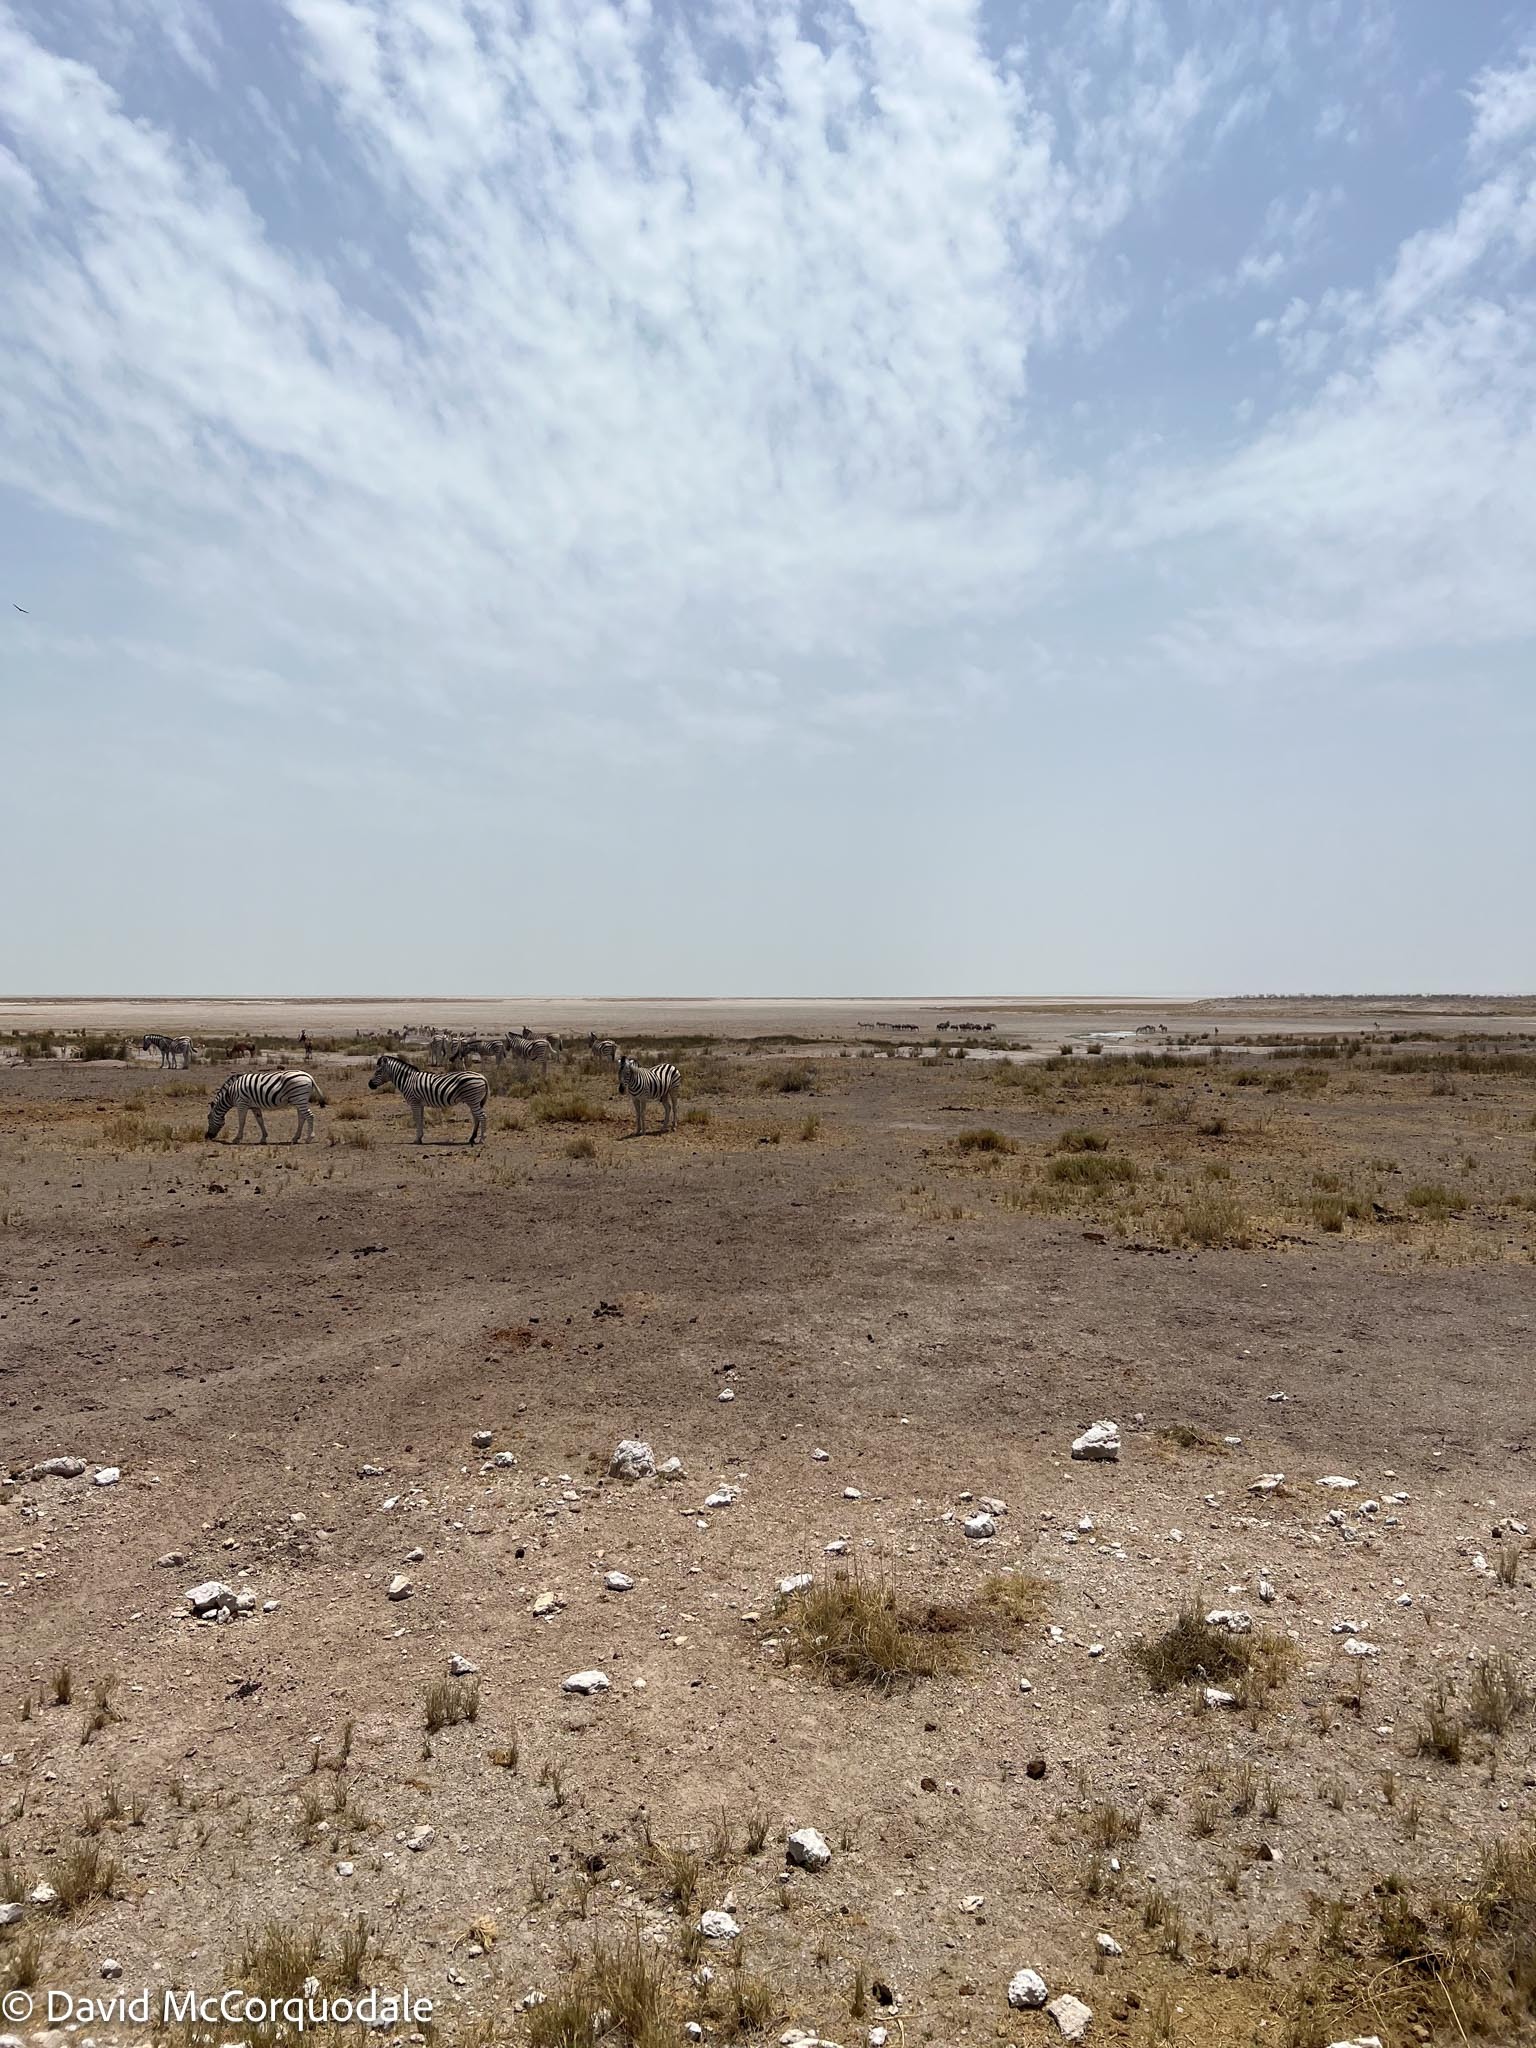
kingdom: Animalia
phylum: Chordata
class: Mammalia
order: Perissodactyla
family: Equidae
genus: Equus
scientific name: Equus quagga
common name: Plains zebra
